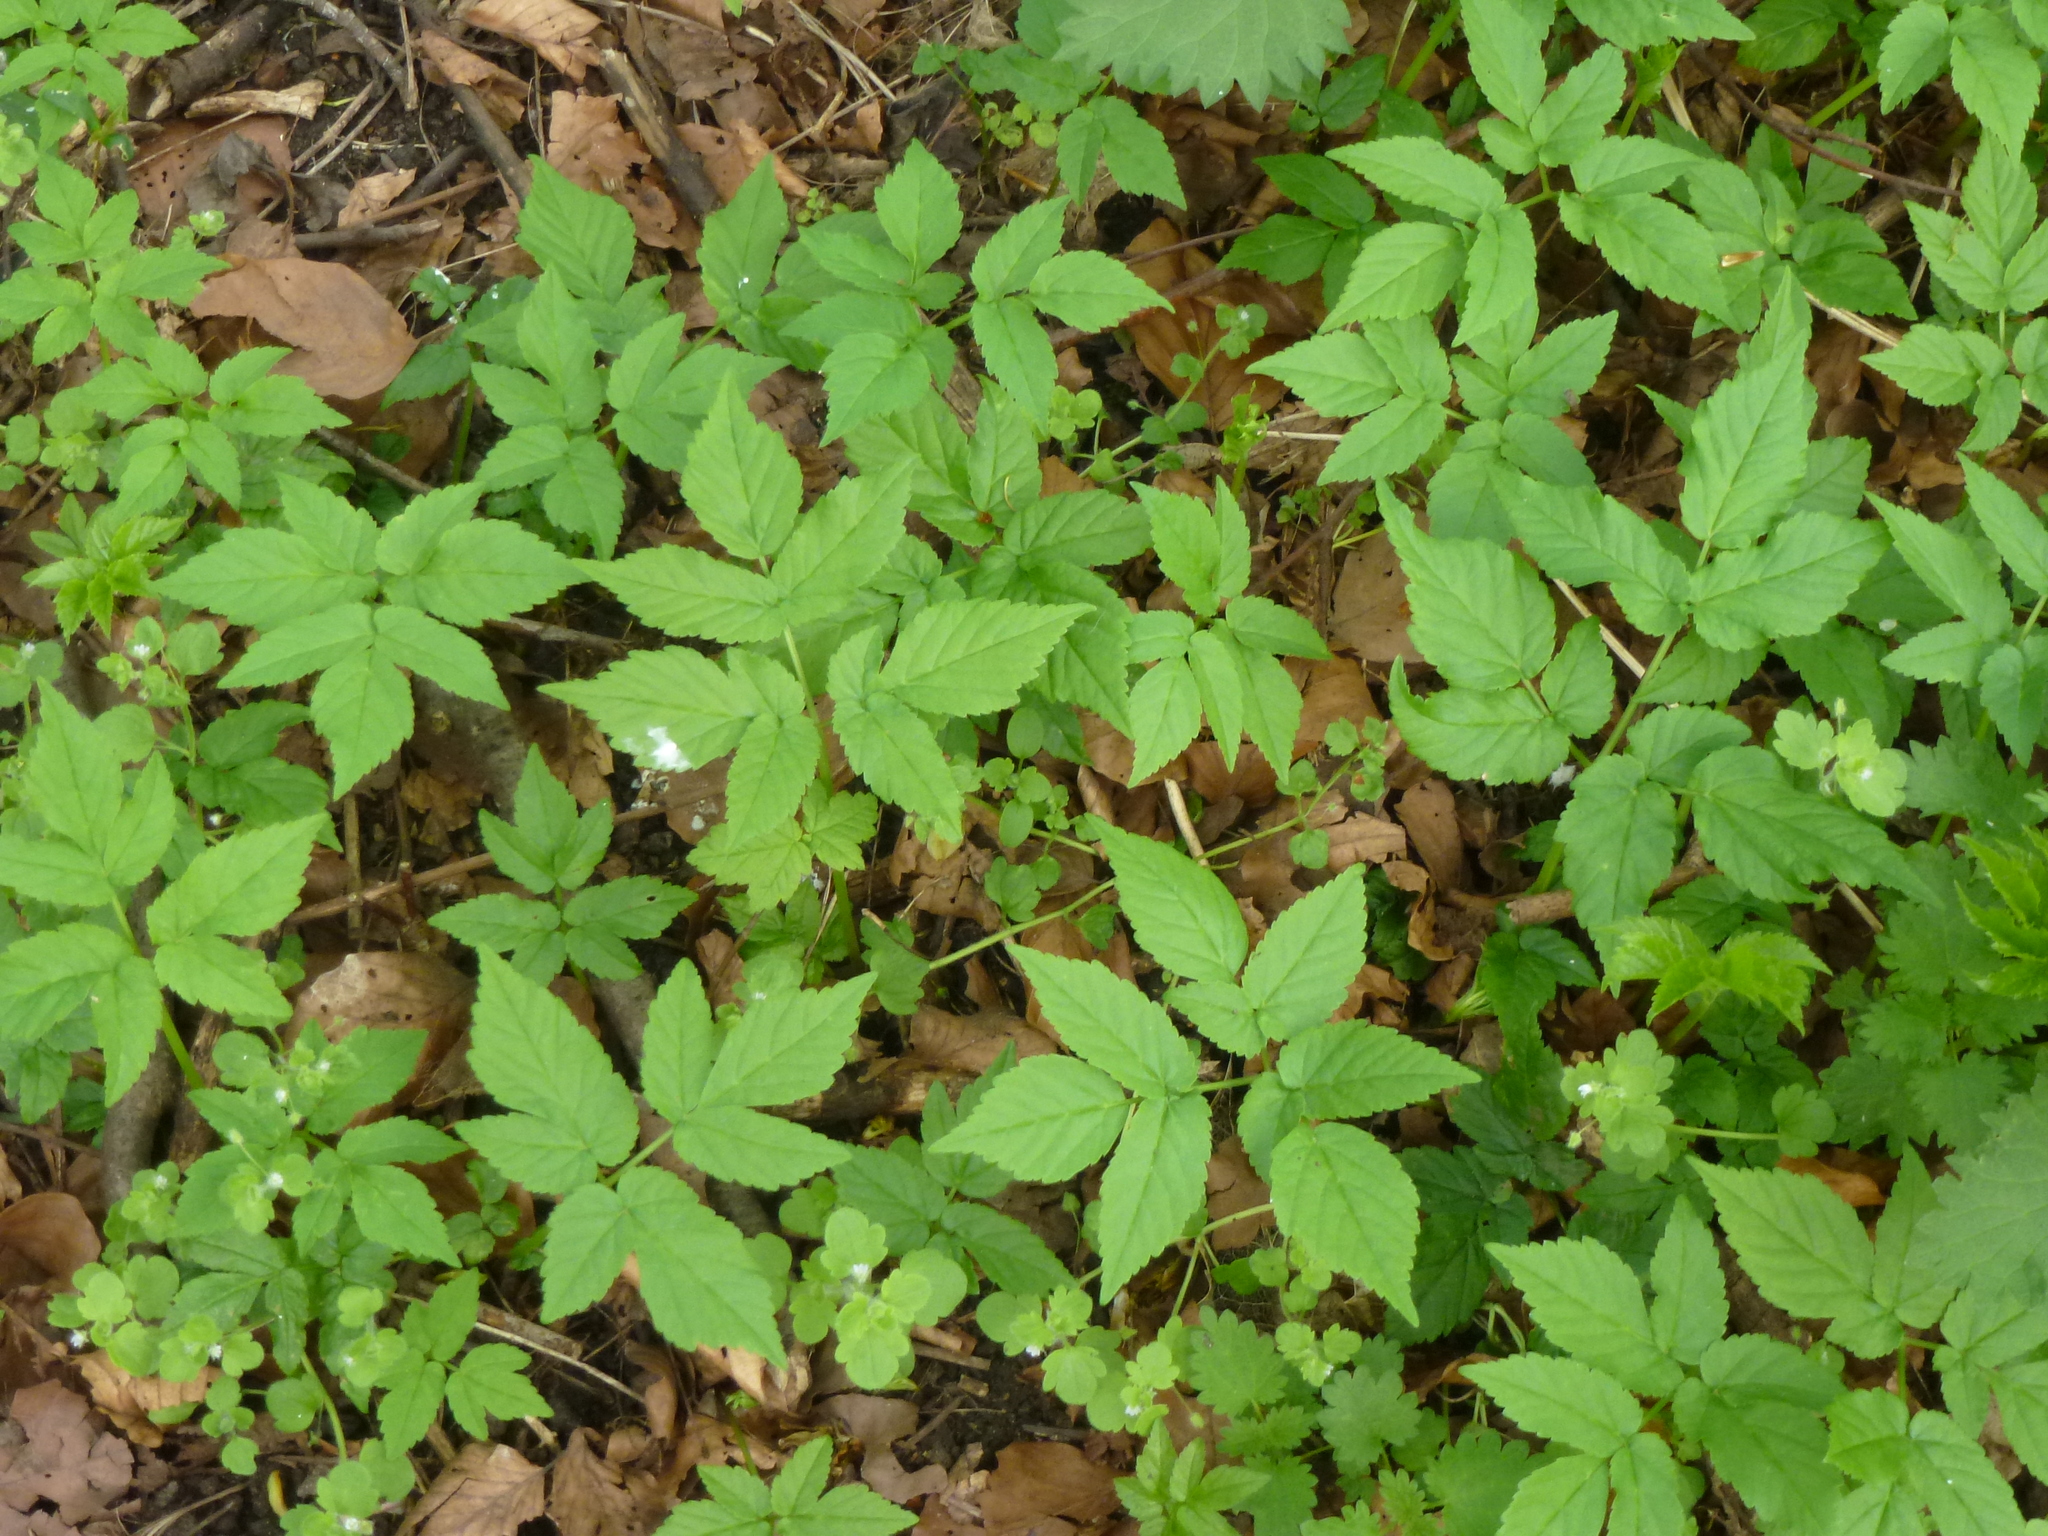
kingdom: Plantae
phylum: Tracheophyta
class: Magnoliopsida
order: Apiales
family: Apiaceae
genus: Aegopodium
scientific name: Aegopodium podagraria
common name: Ground-elder
